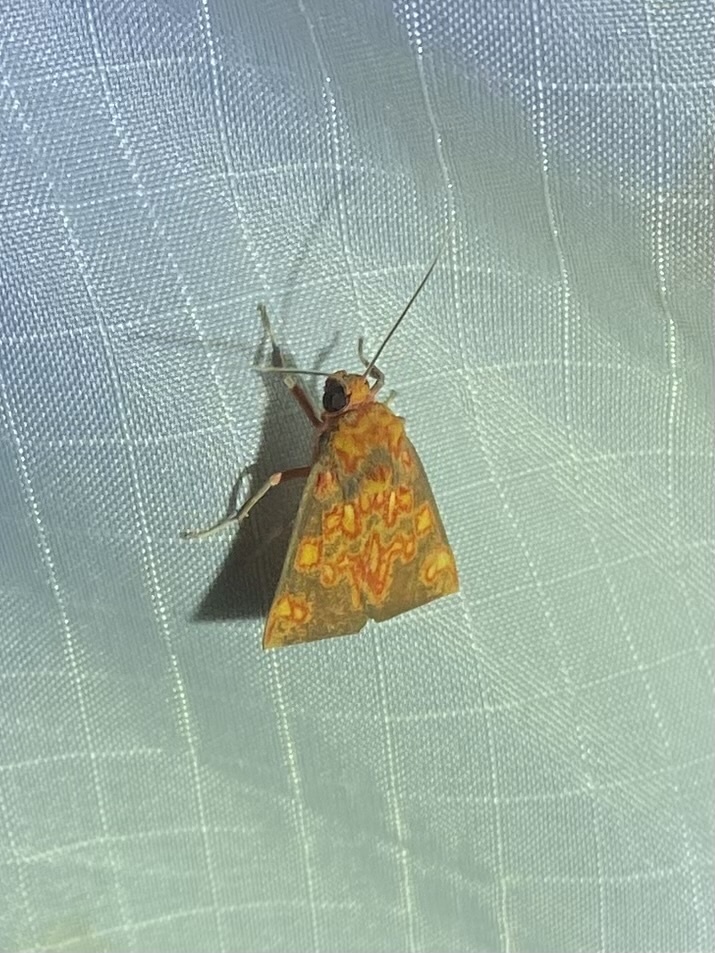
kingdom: Animalia
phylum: Arthropoda
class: Insecta
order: Lepidoptera
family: Erebidae
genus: Melese
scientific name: Melese flavimaculata
